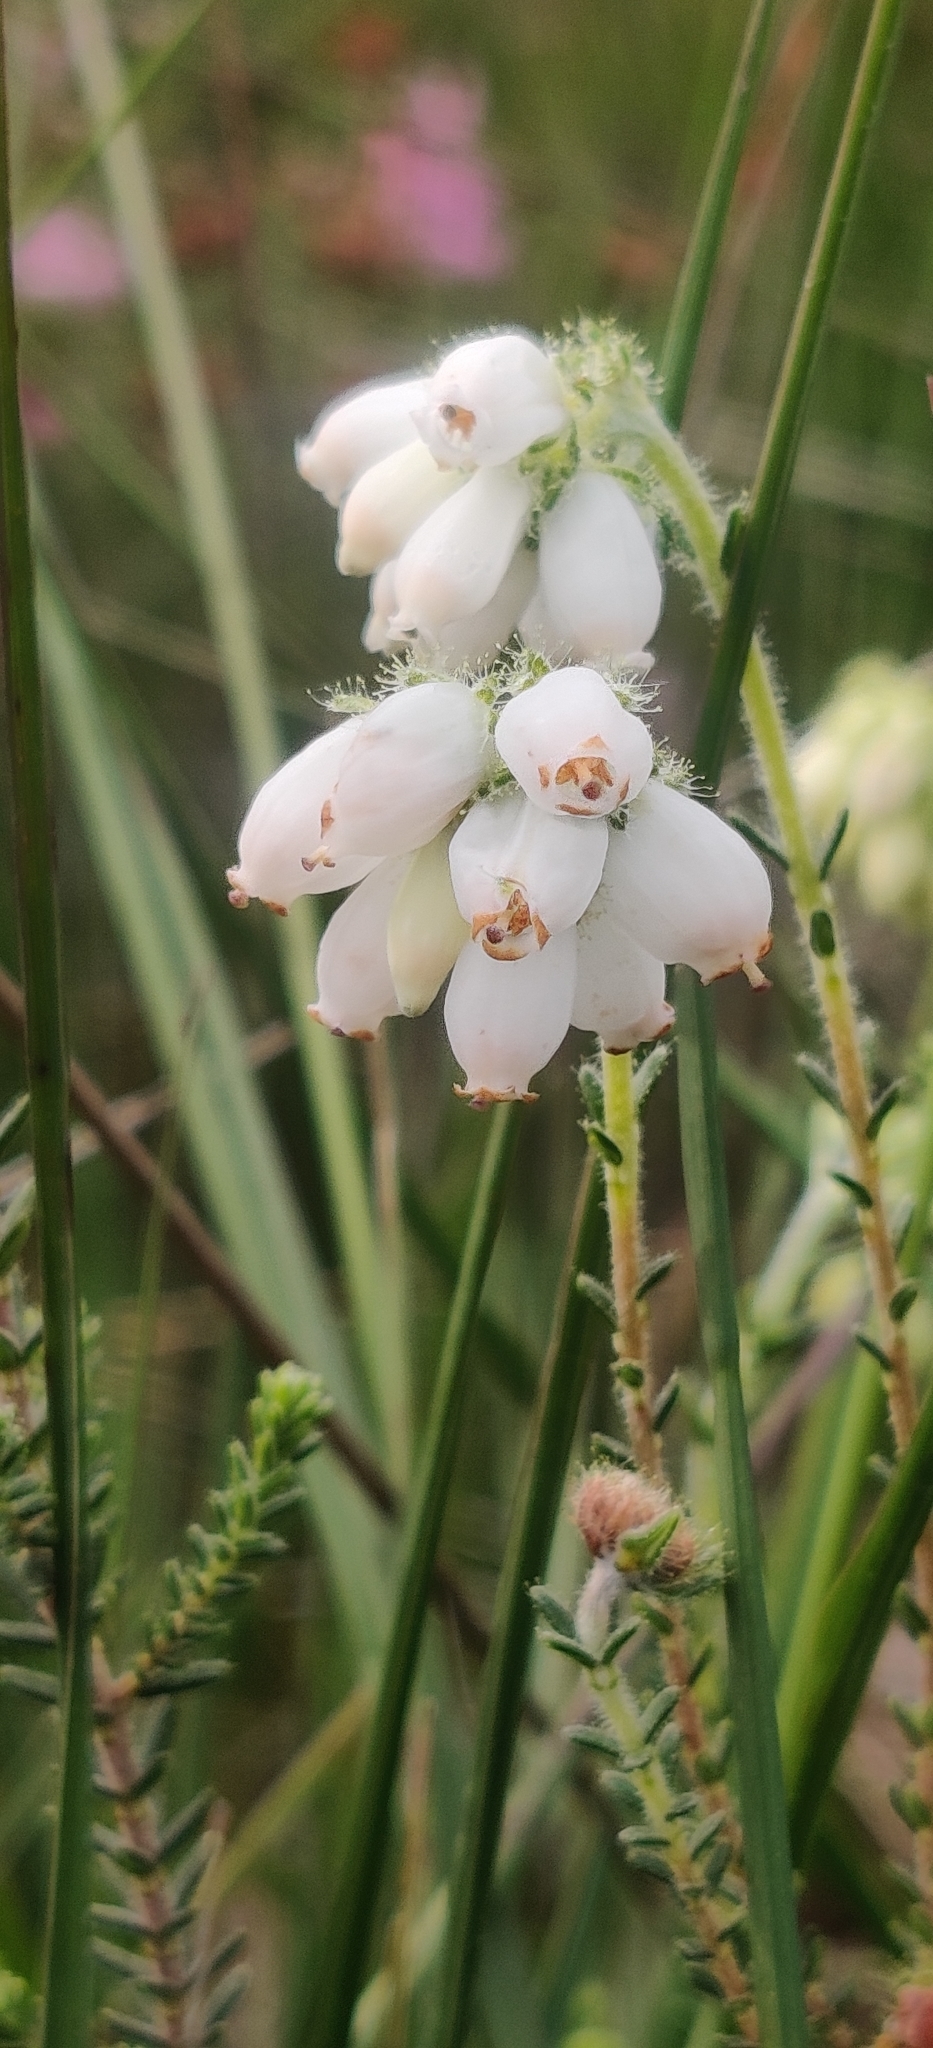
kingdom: Plantae
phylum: Tracheophyta
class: Magnoliopsida
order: Ericales
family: Ericaceae
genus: Erica
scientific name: Erica tetralix
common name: Cross-leaved heath
